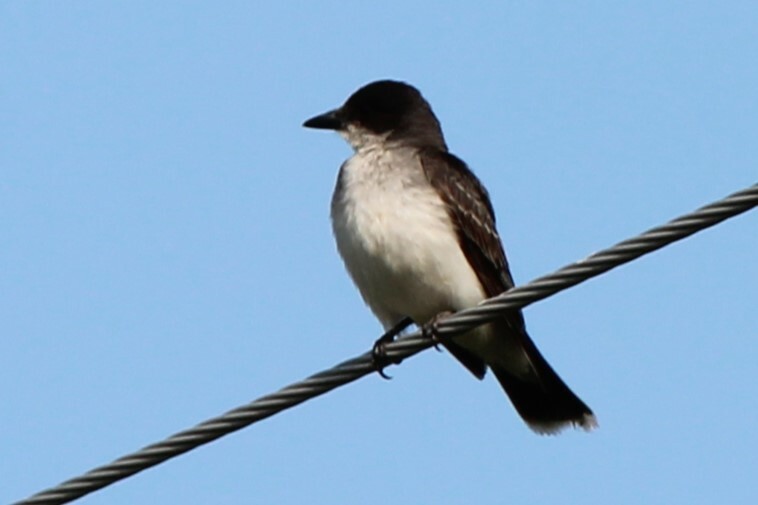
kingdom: Animalia
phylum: Chordata
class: Aves
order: Passeriformes
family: Tyrannidae
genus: Tyrannus
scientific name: Tyrannus tyrannus
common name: Eastern kingbird
